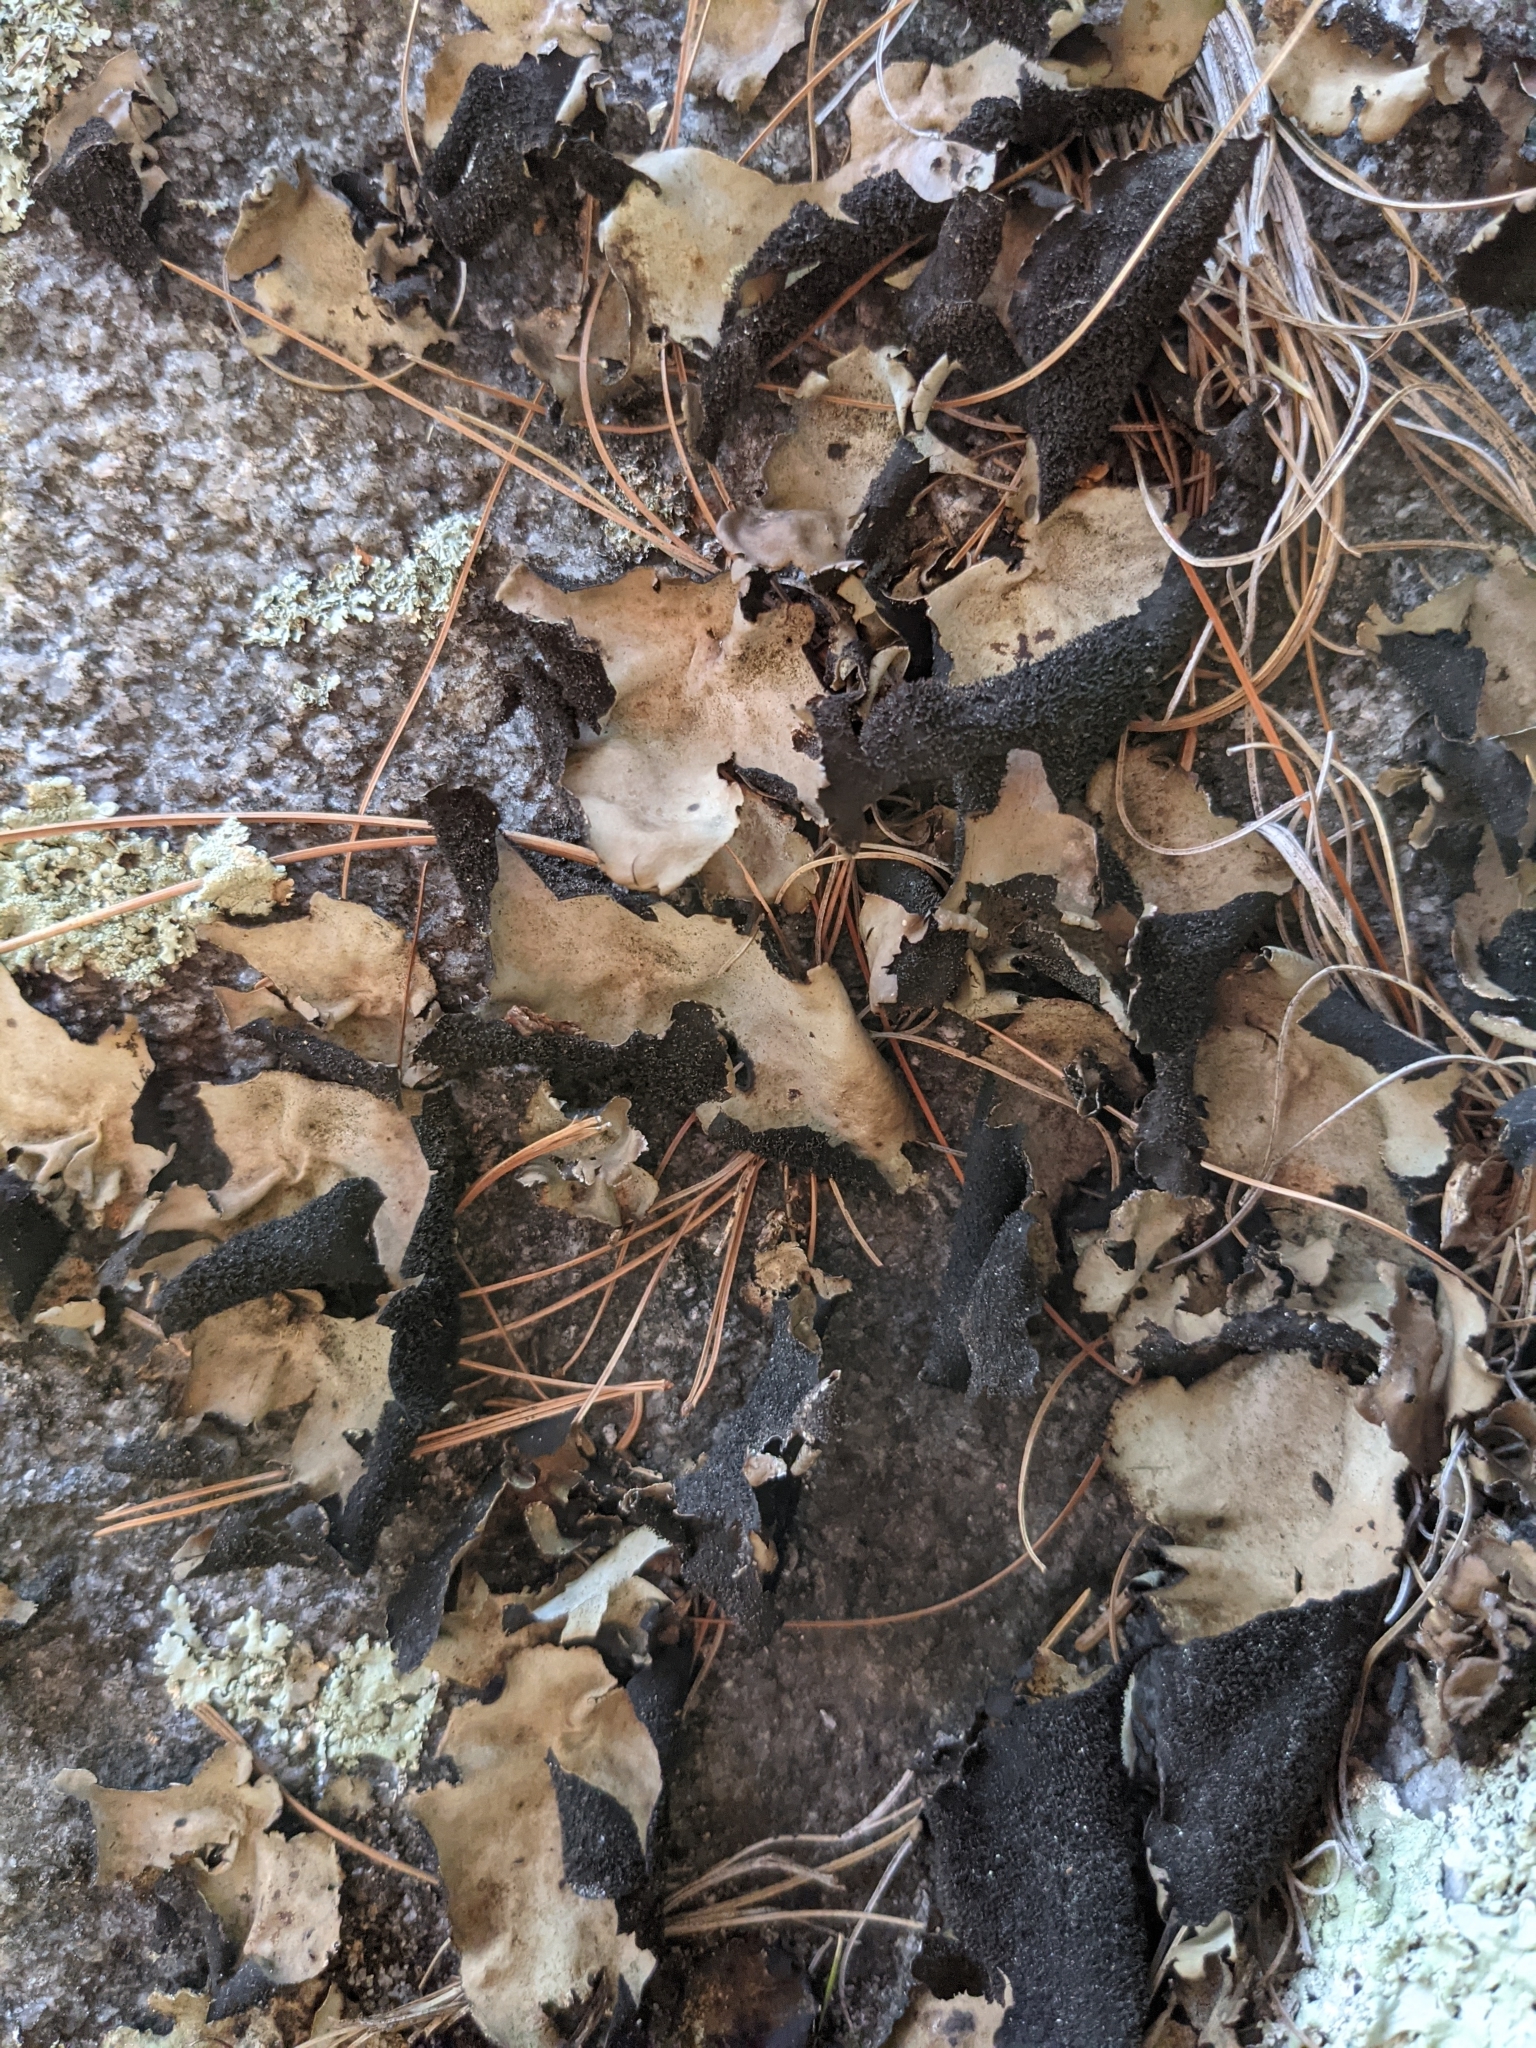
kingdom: Fungi
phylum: Ascomycota
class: Lecanoromycetes
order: Umbilicariales
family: Umbilicariaceae
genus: Umbilicaria
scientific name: Umbilicaria mammulata
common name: Smooth rock tripe
